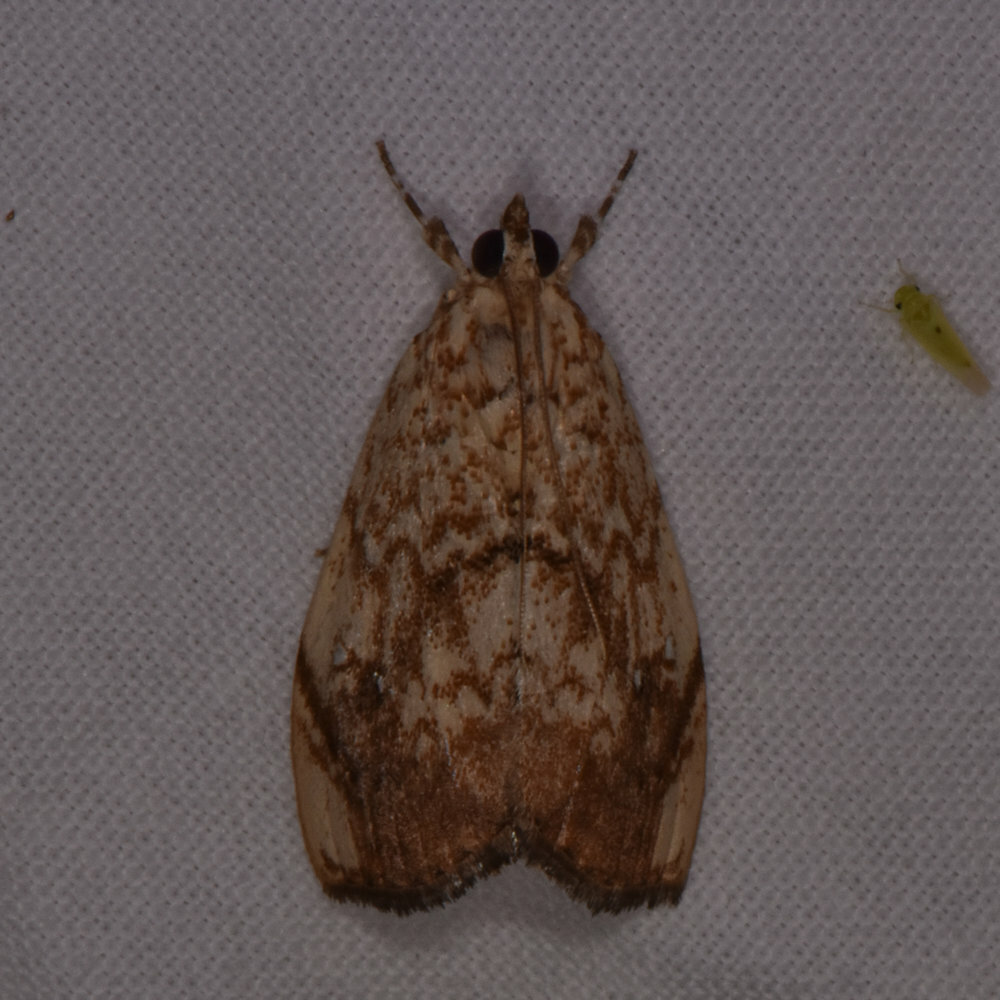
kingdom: Animalia
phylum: Arthropoda
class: Insecta
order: Lepidoptera
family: Crambidae
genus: Crocidolomia
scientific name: Crocidolomia pavonana
